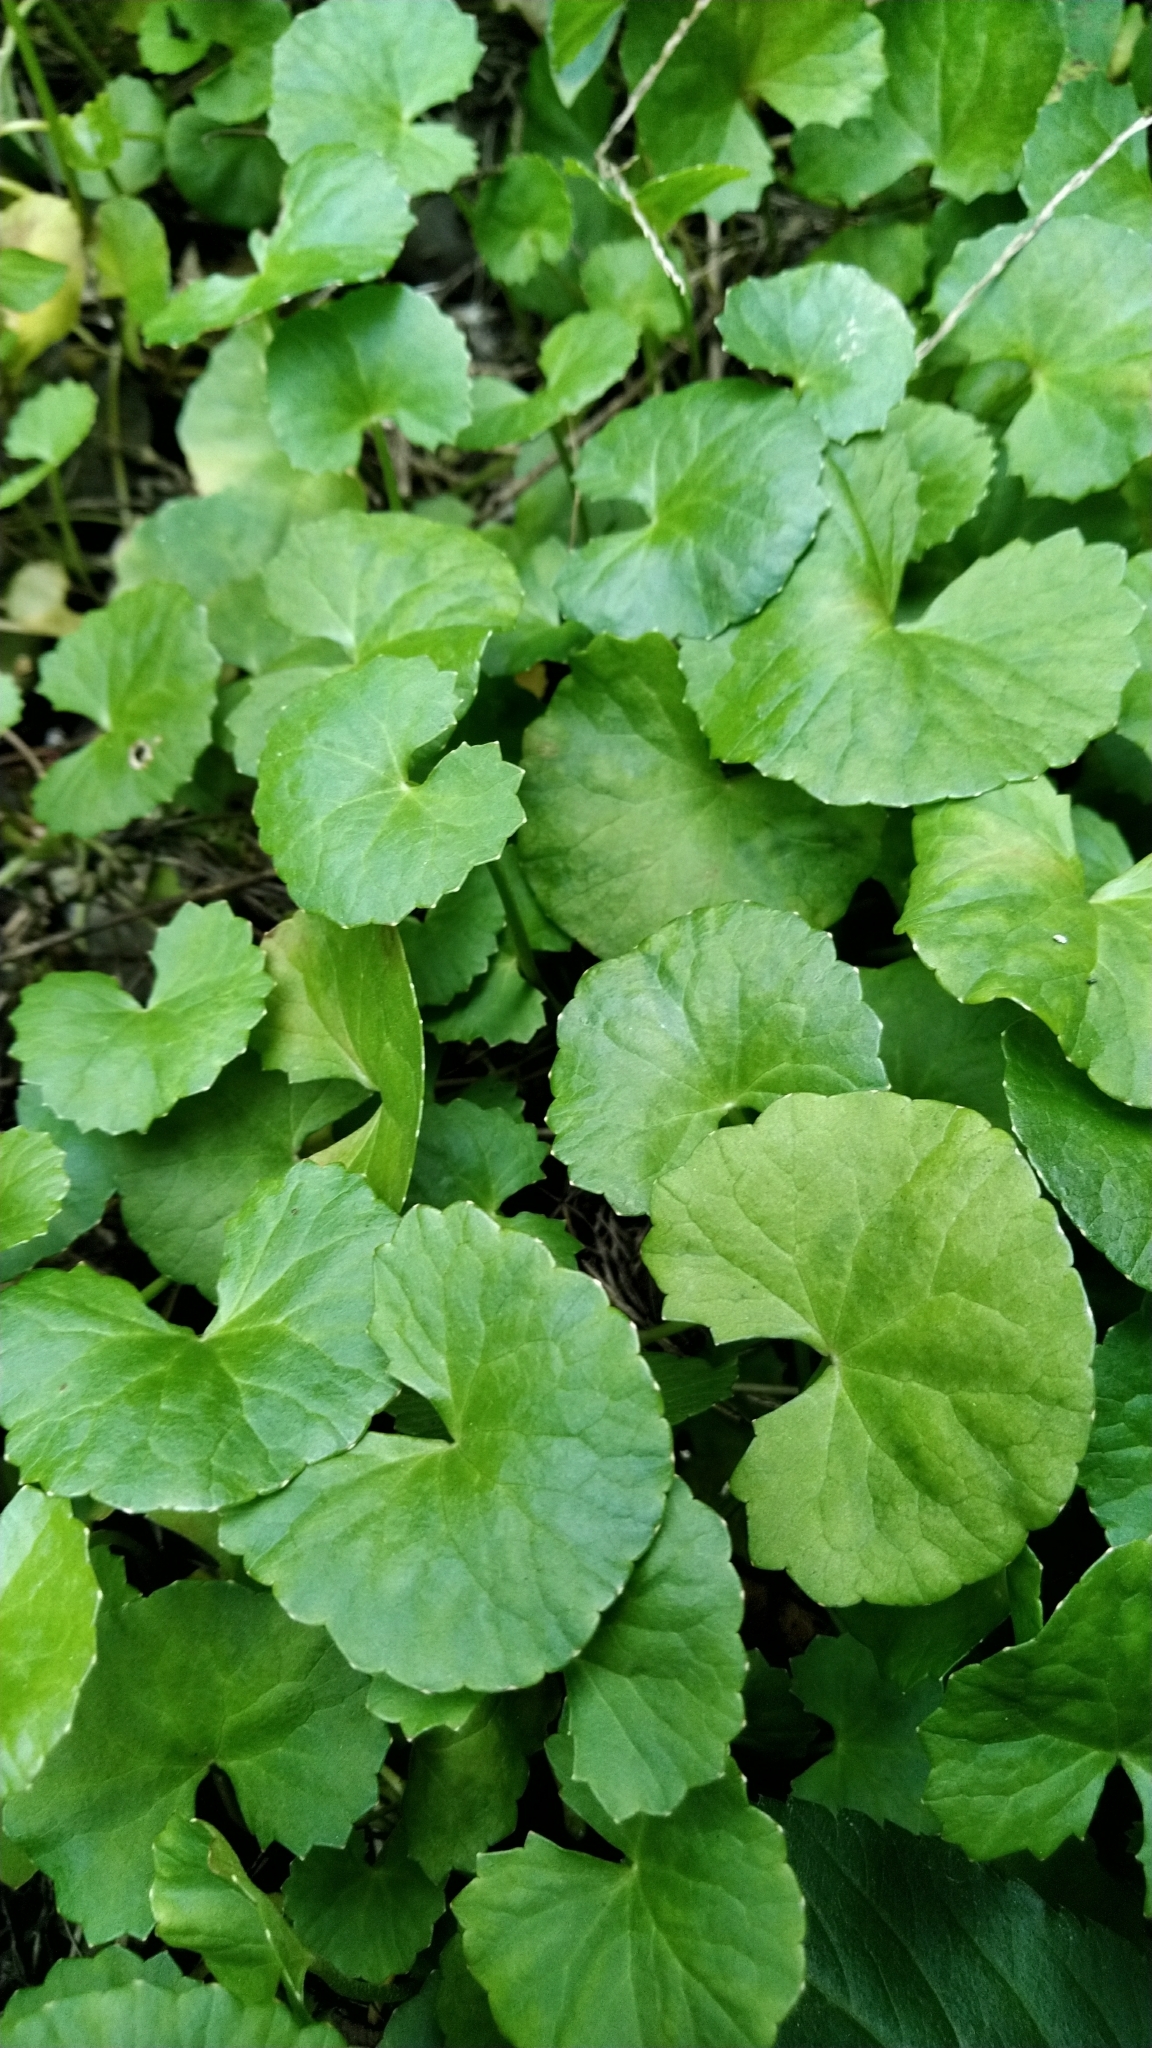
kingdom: Plantae
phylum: Tracheophyta
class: Magnoliopsida
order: Apiales
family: Apiaceae
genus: Centella
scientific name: Centella asiatica
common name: Spadeleaf
